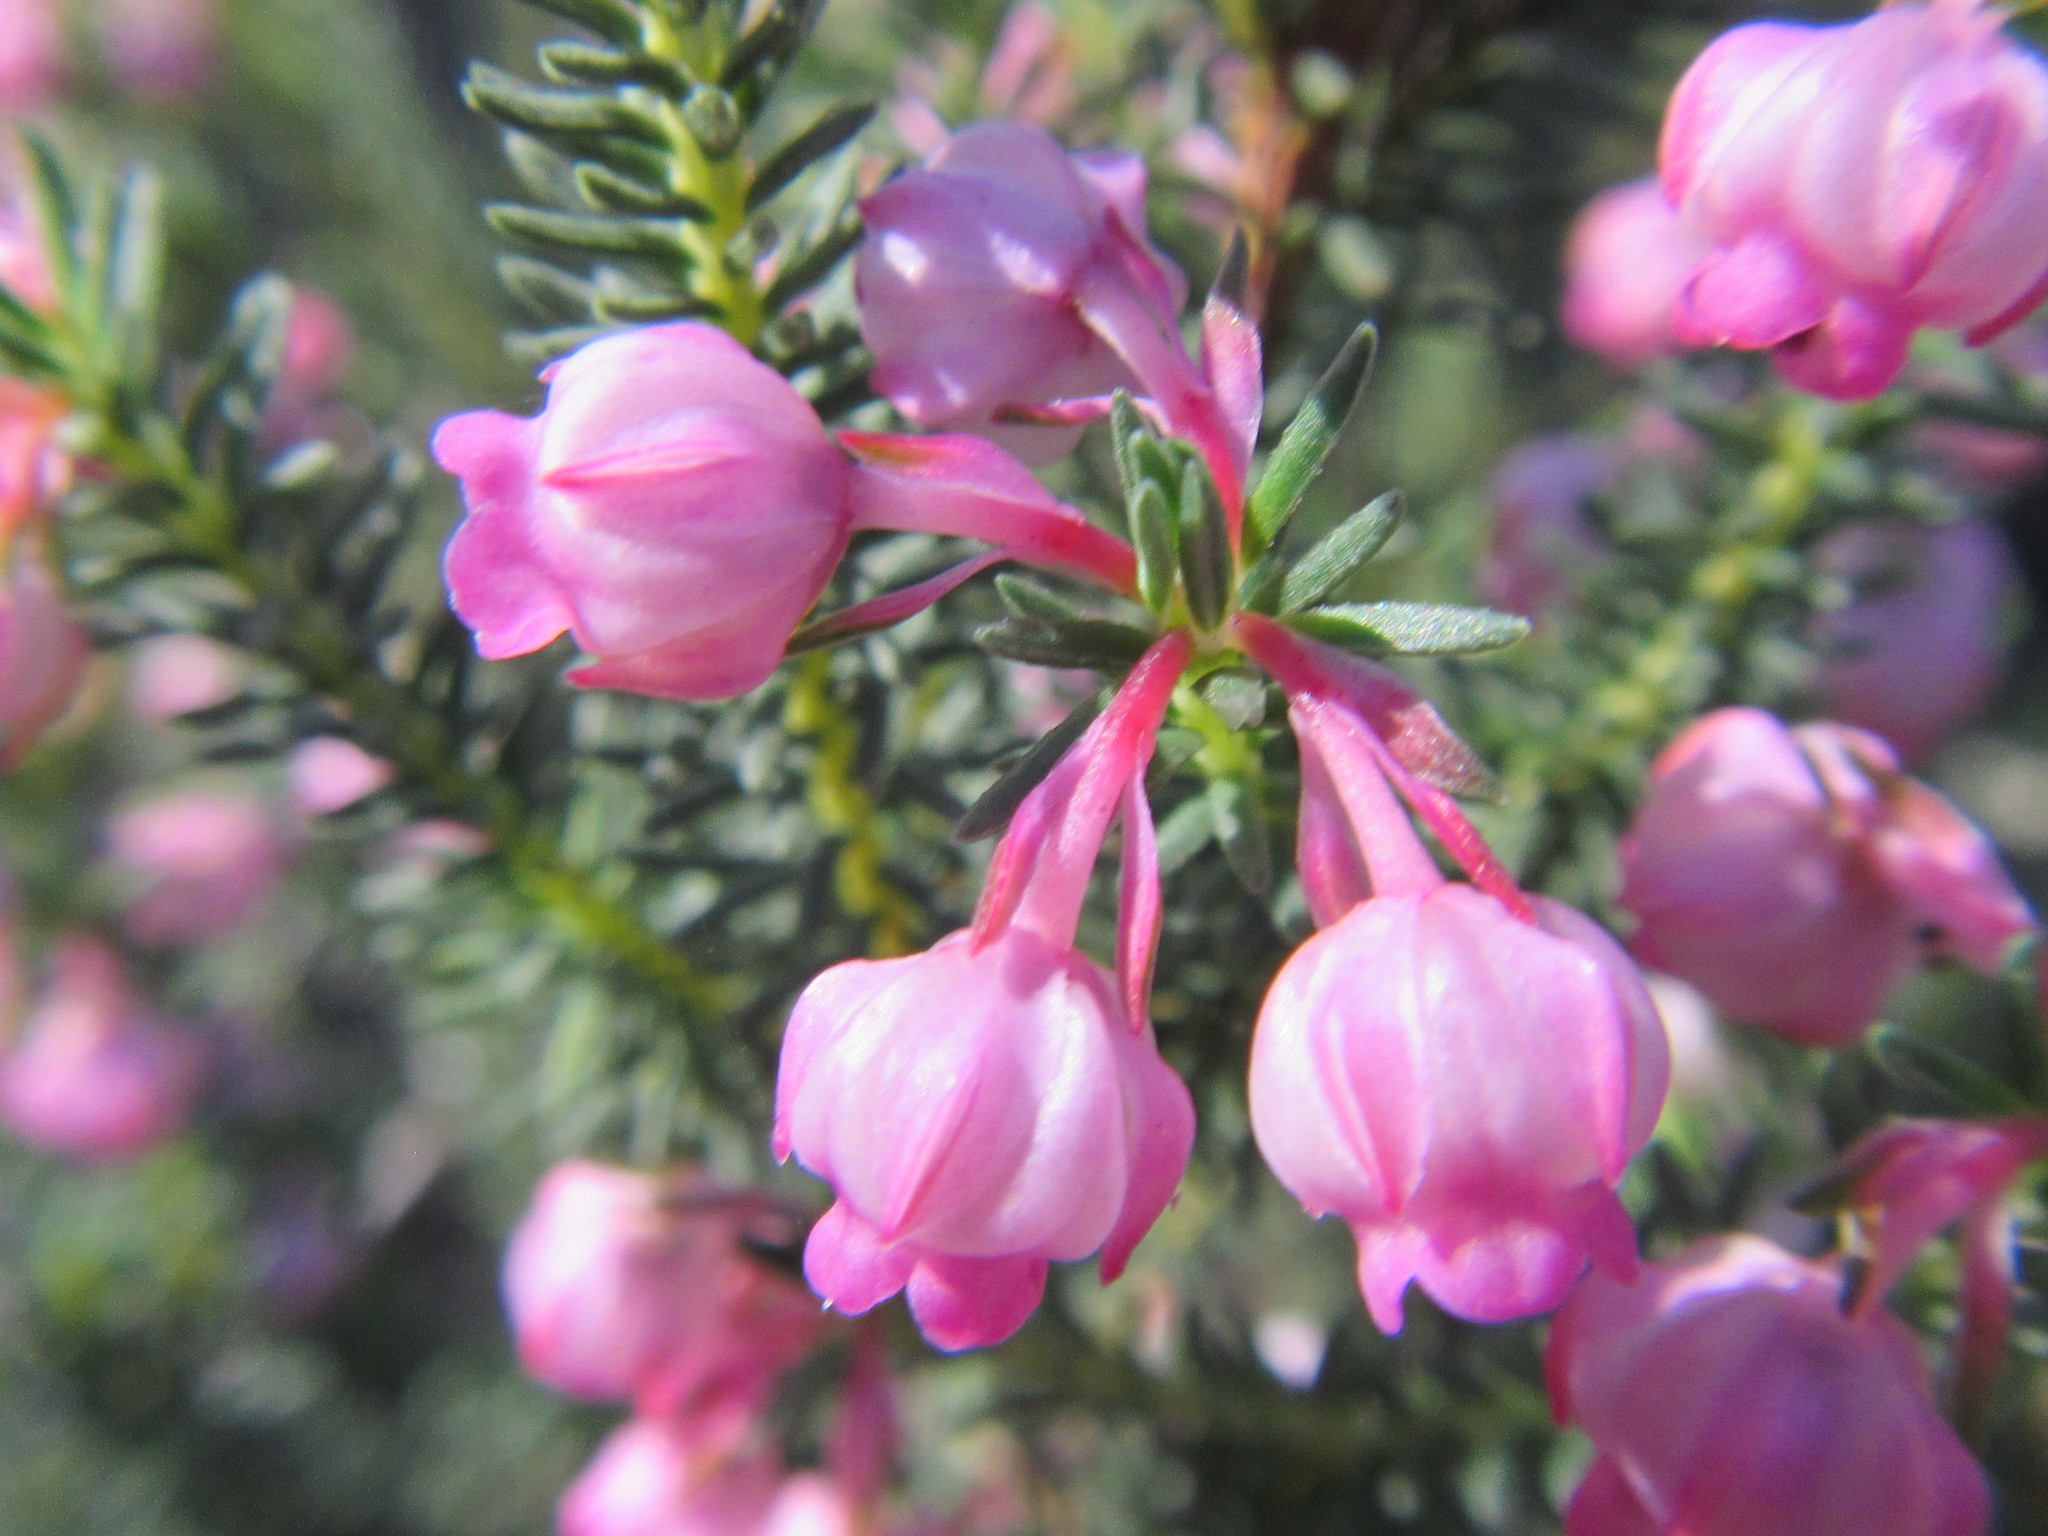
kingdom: Plantae
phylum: Tracheophyta
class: Magnoliopsida
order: Ericales
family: Ericaceae
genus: Erica
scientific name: Erica baccans
